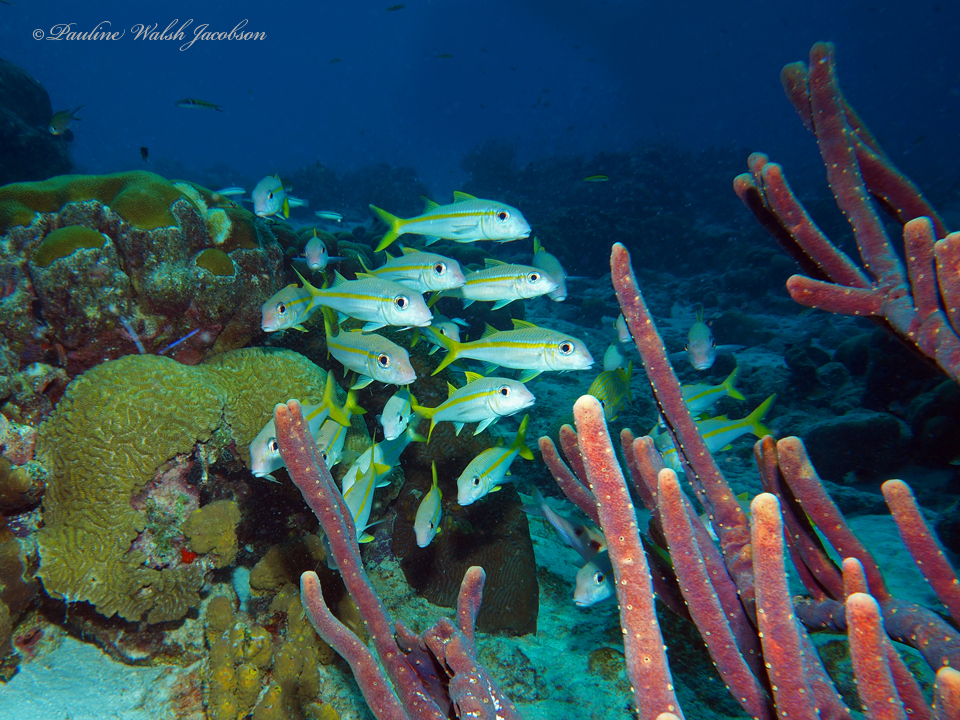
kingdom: Animalia
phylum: Chordata
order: Perciformes
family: Mullidae
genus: Mulloidichthys
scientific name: Mulloidichthys martinicus
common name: Yellow goatfish
